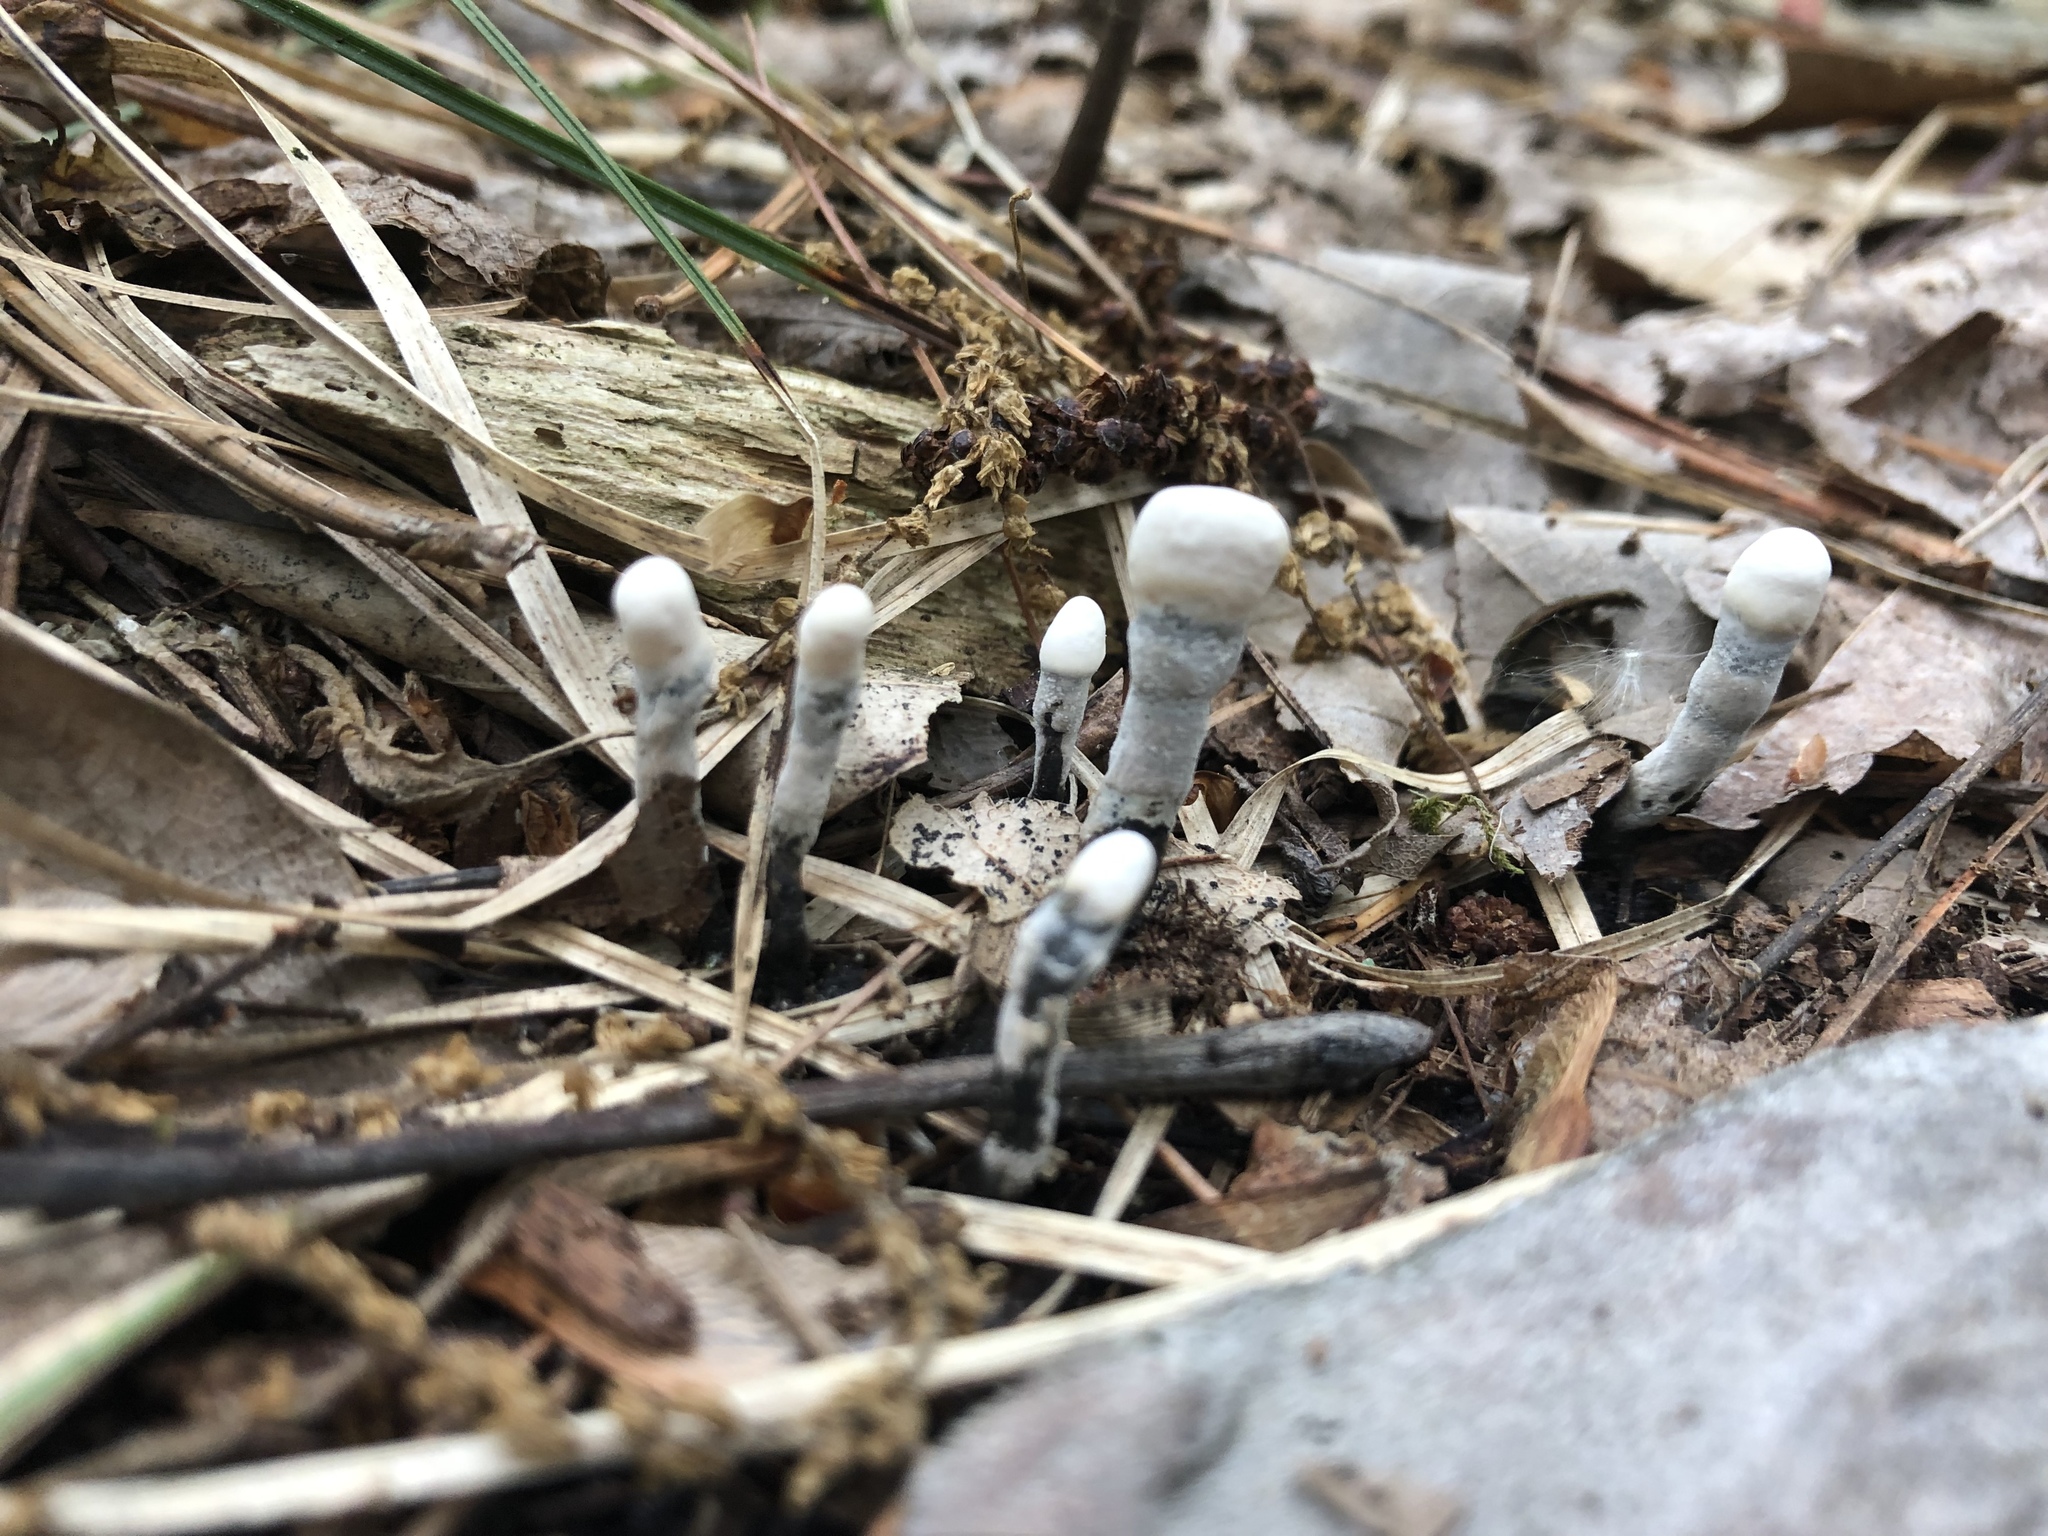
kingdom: Fungi
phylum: Ascomycota
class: Sordariomycetes
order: Xylariales
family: Xylariaceae
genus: Xylaria
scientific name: Xylaria polymorpha
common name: Dead man's fingers
